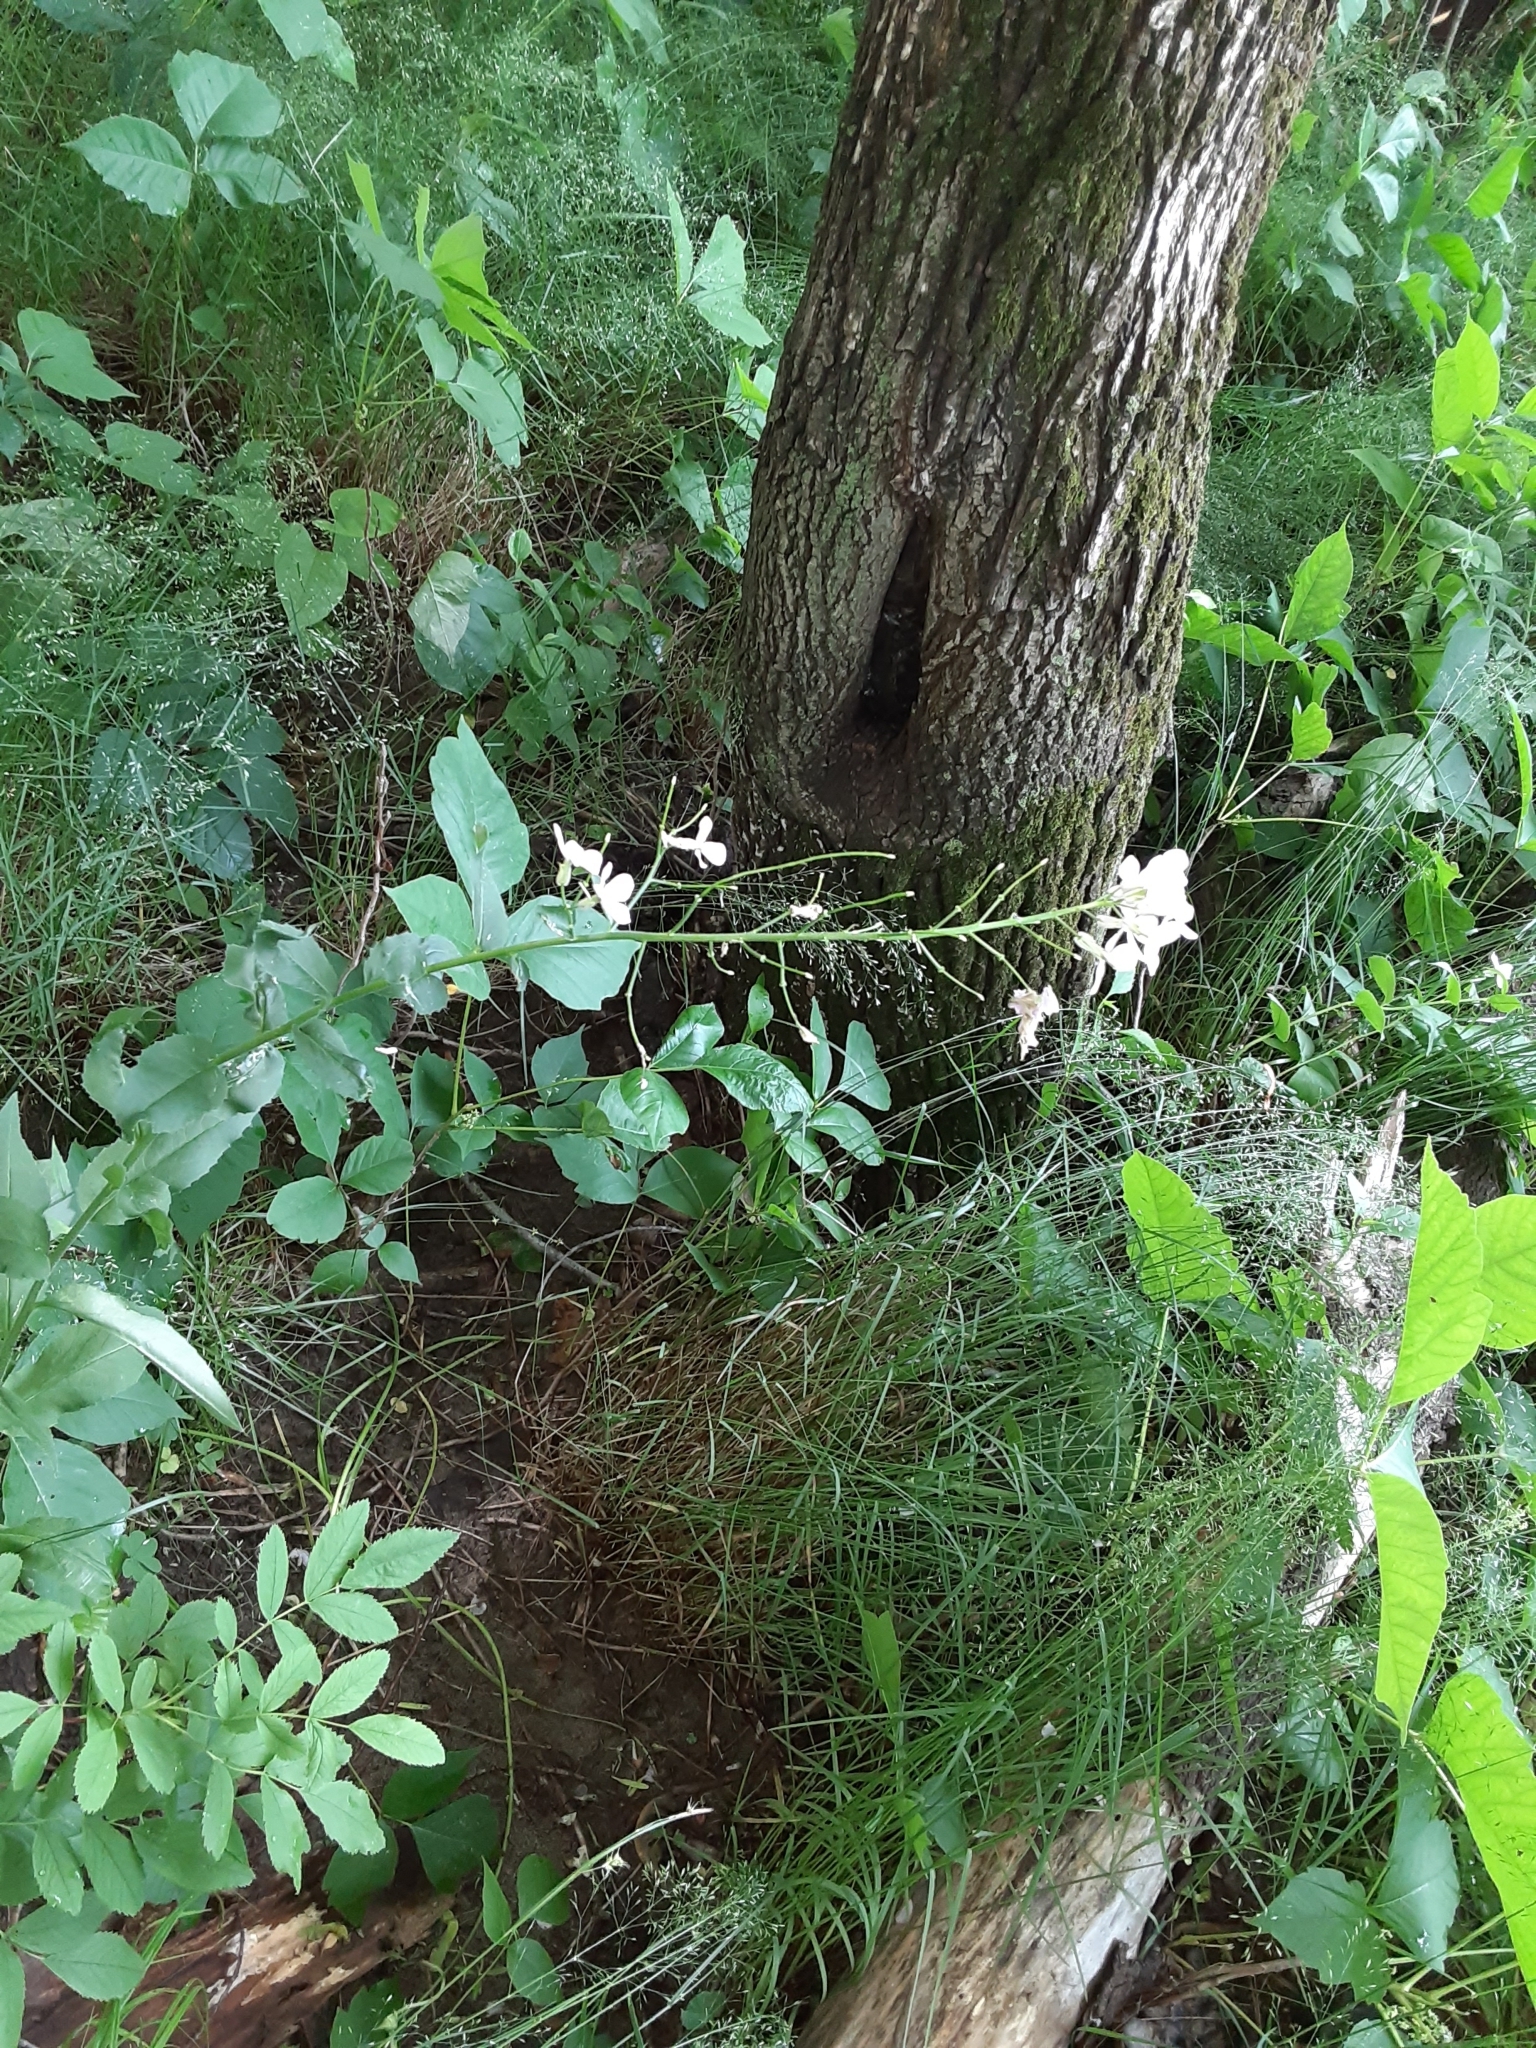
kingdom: Plantae
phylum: Tracheophyta
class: Magnoliopsida
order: Brassicales
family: Brassicaceae
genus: Hesperis
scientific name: Hesperis matronalis
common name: Dame's-violet
